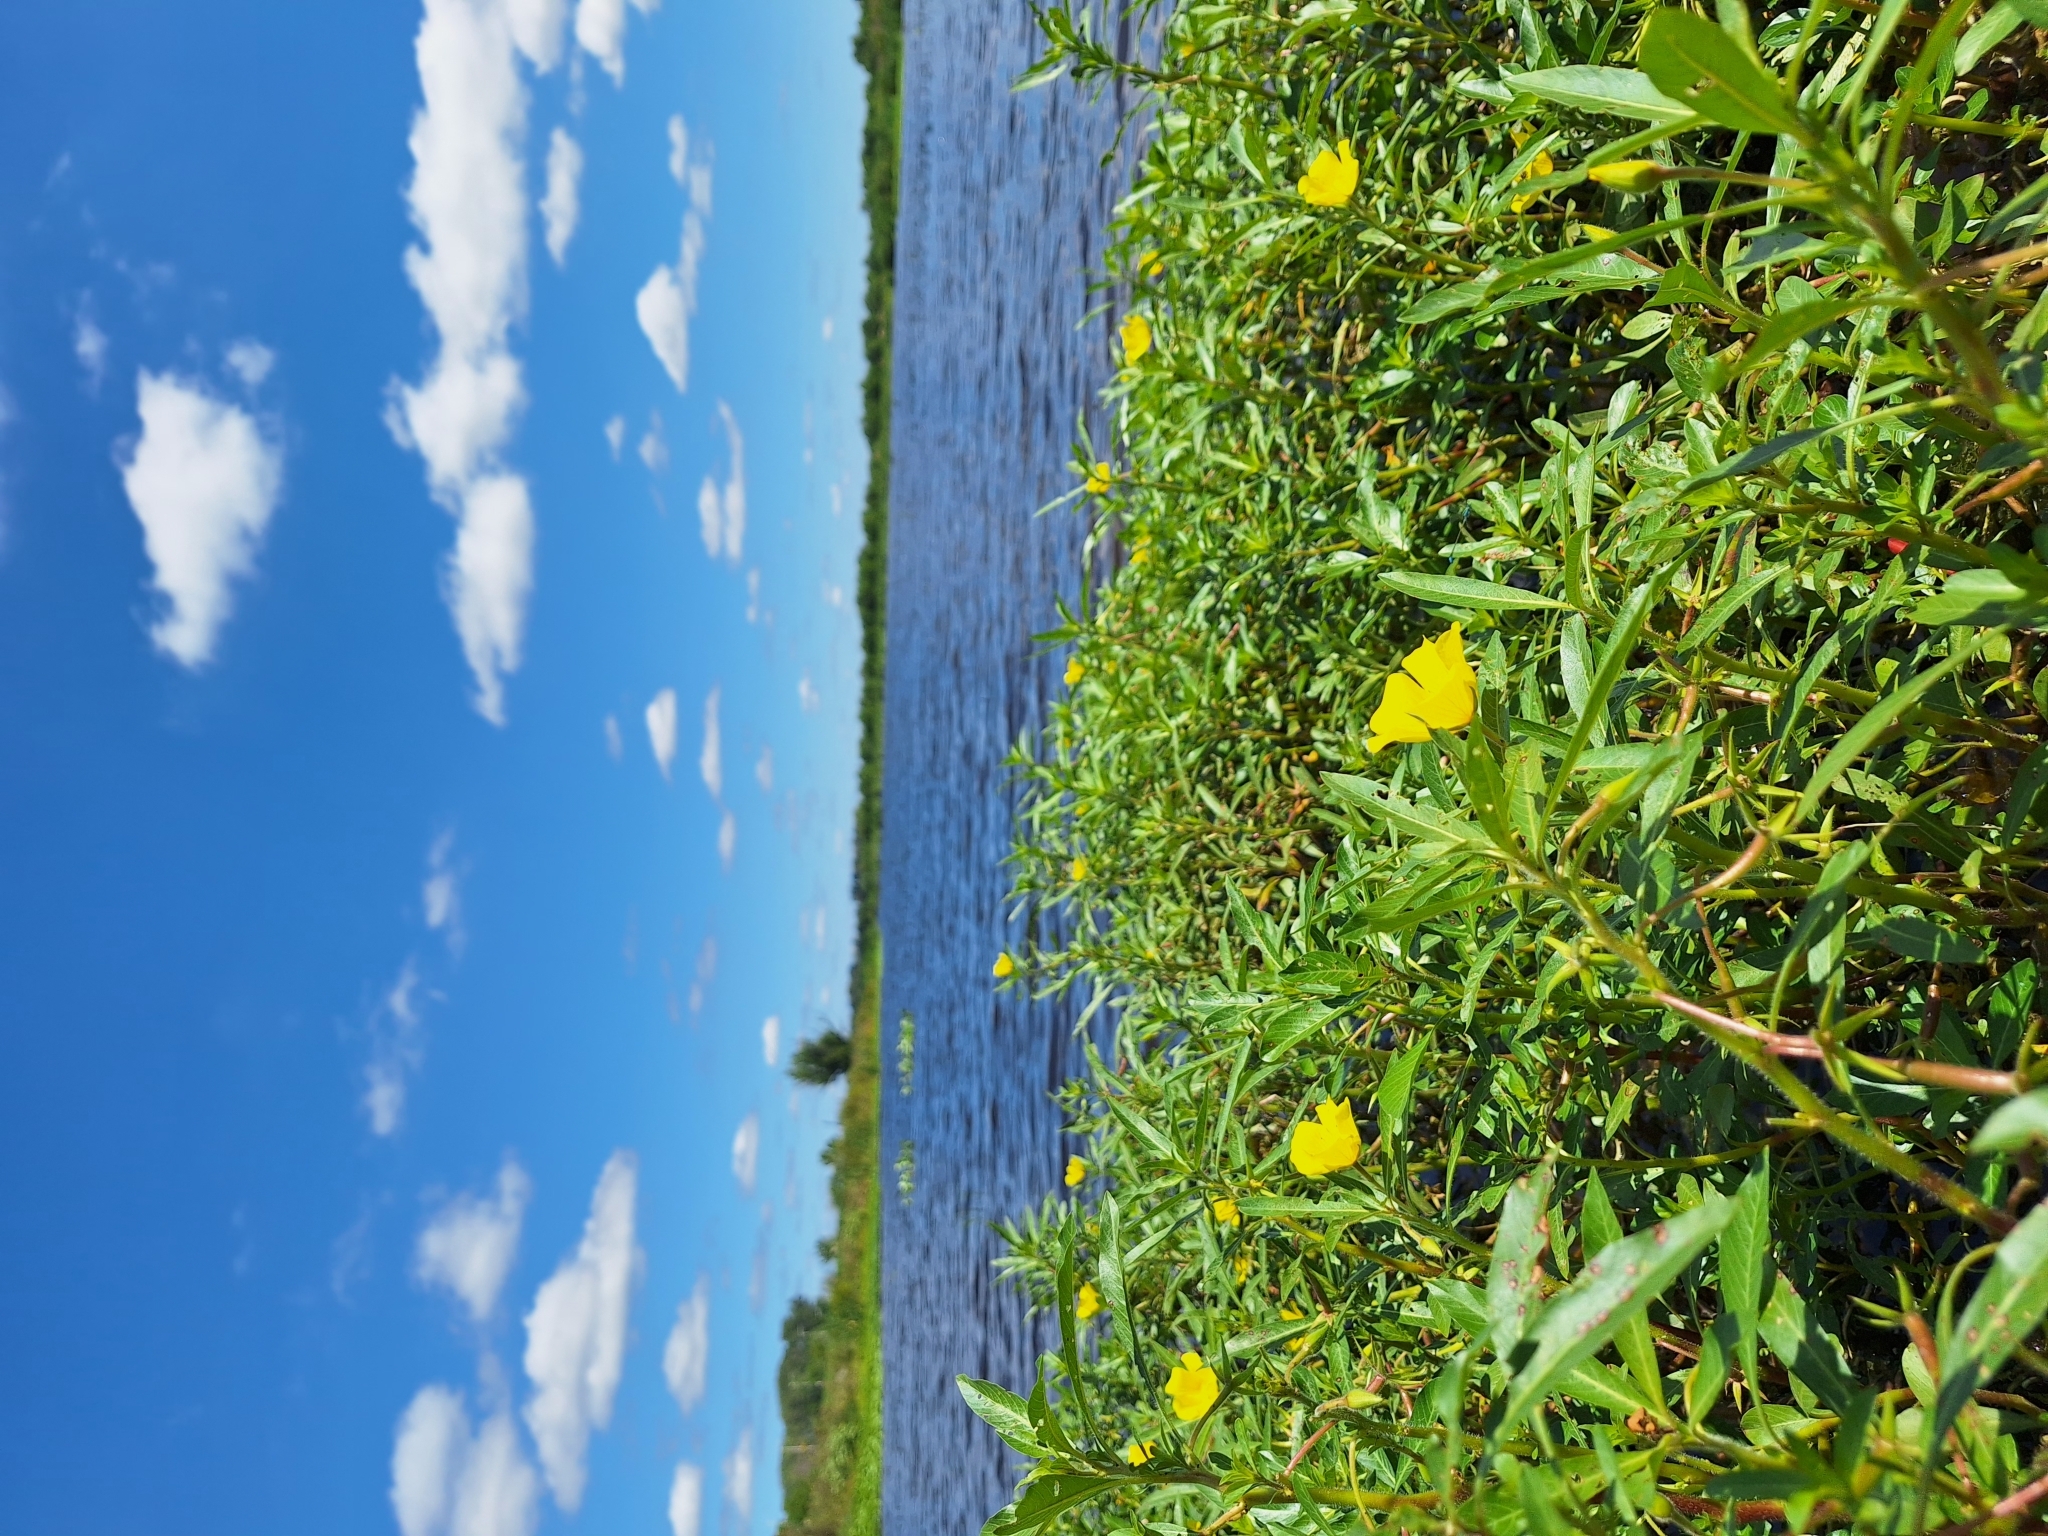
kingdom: Plantae
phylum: Tracheophyta
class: Magnoliopsida
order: Myrtales
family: Onagraceae
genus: Ludwigia
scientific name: Ludwigia peploides
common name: Floating primrose-willow
